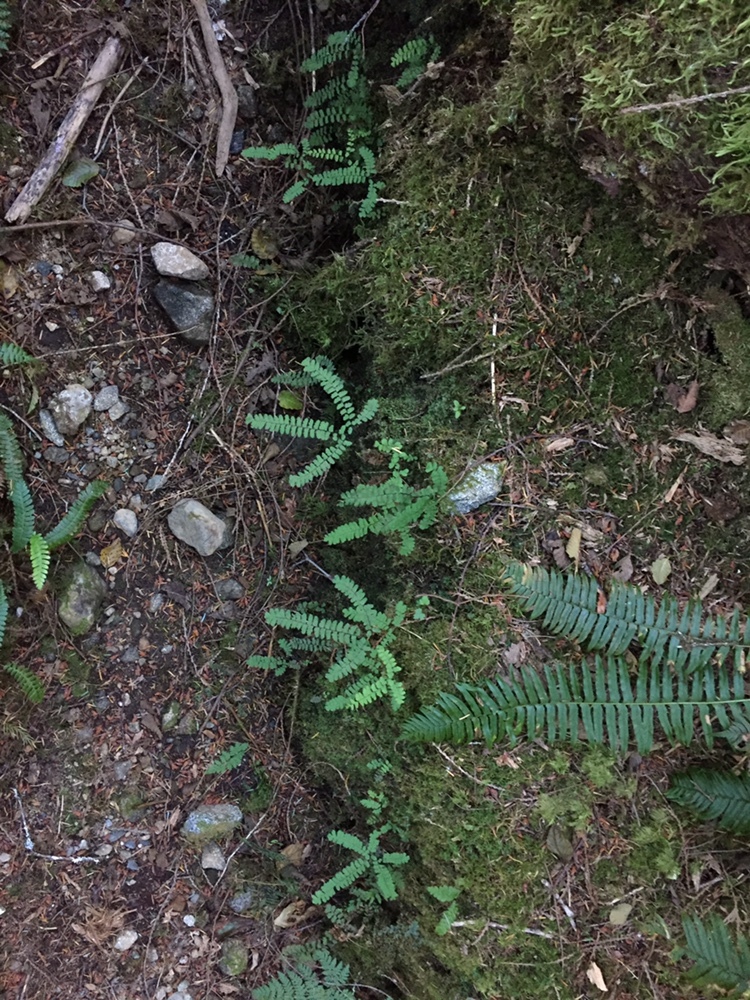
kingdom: Plantae
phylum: Tracheophyta
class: Polypodiopsida
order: Polypodiales
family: Pteridaceae
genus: Adiantum
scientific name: Adiantum aleuticum
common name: Aleutian maidenhair fern
